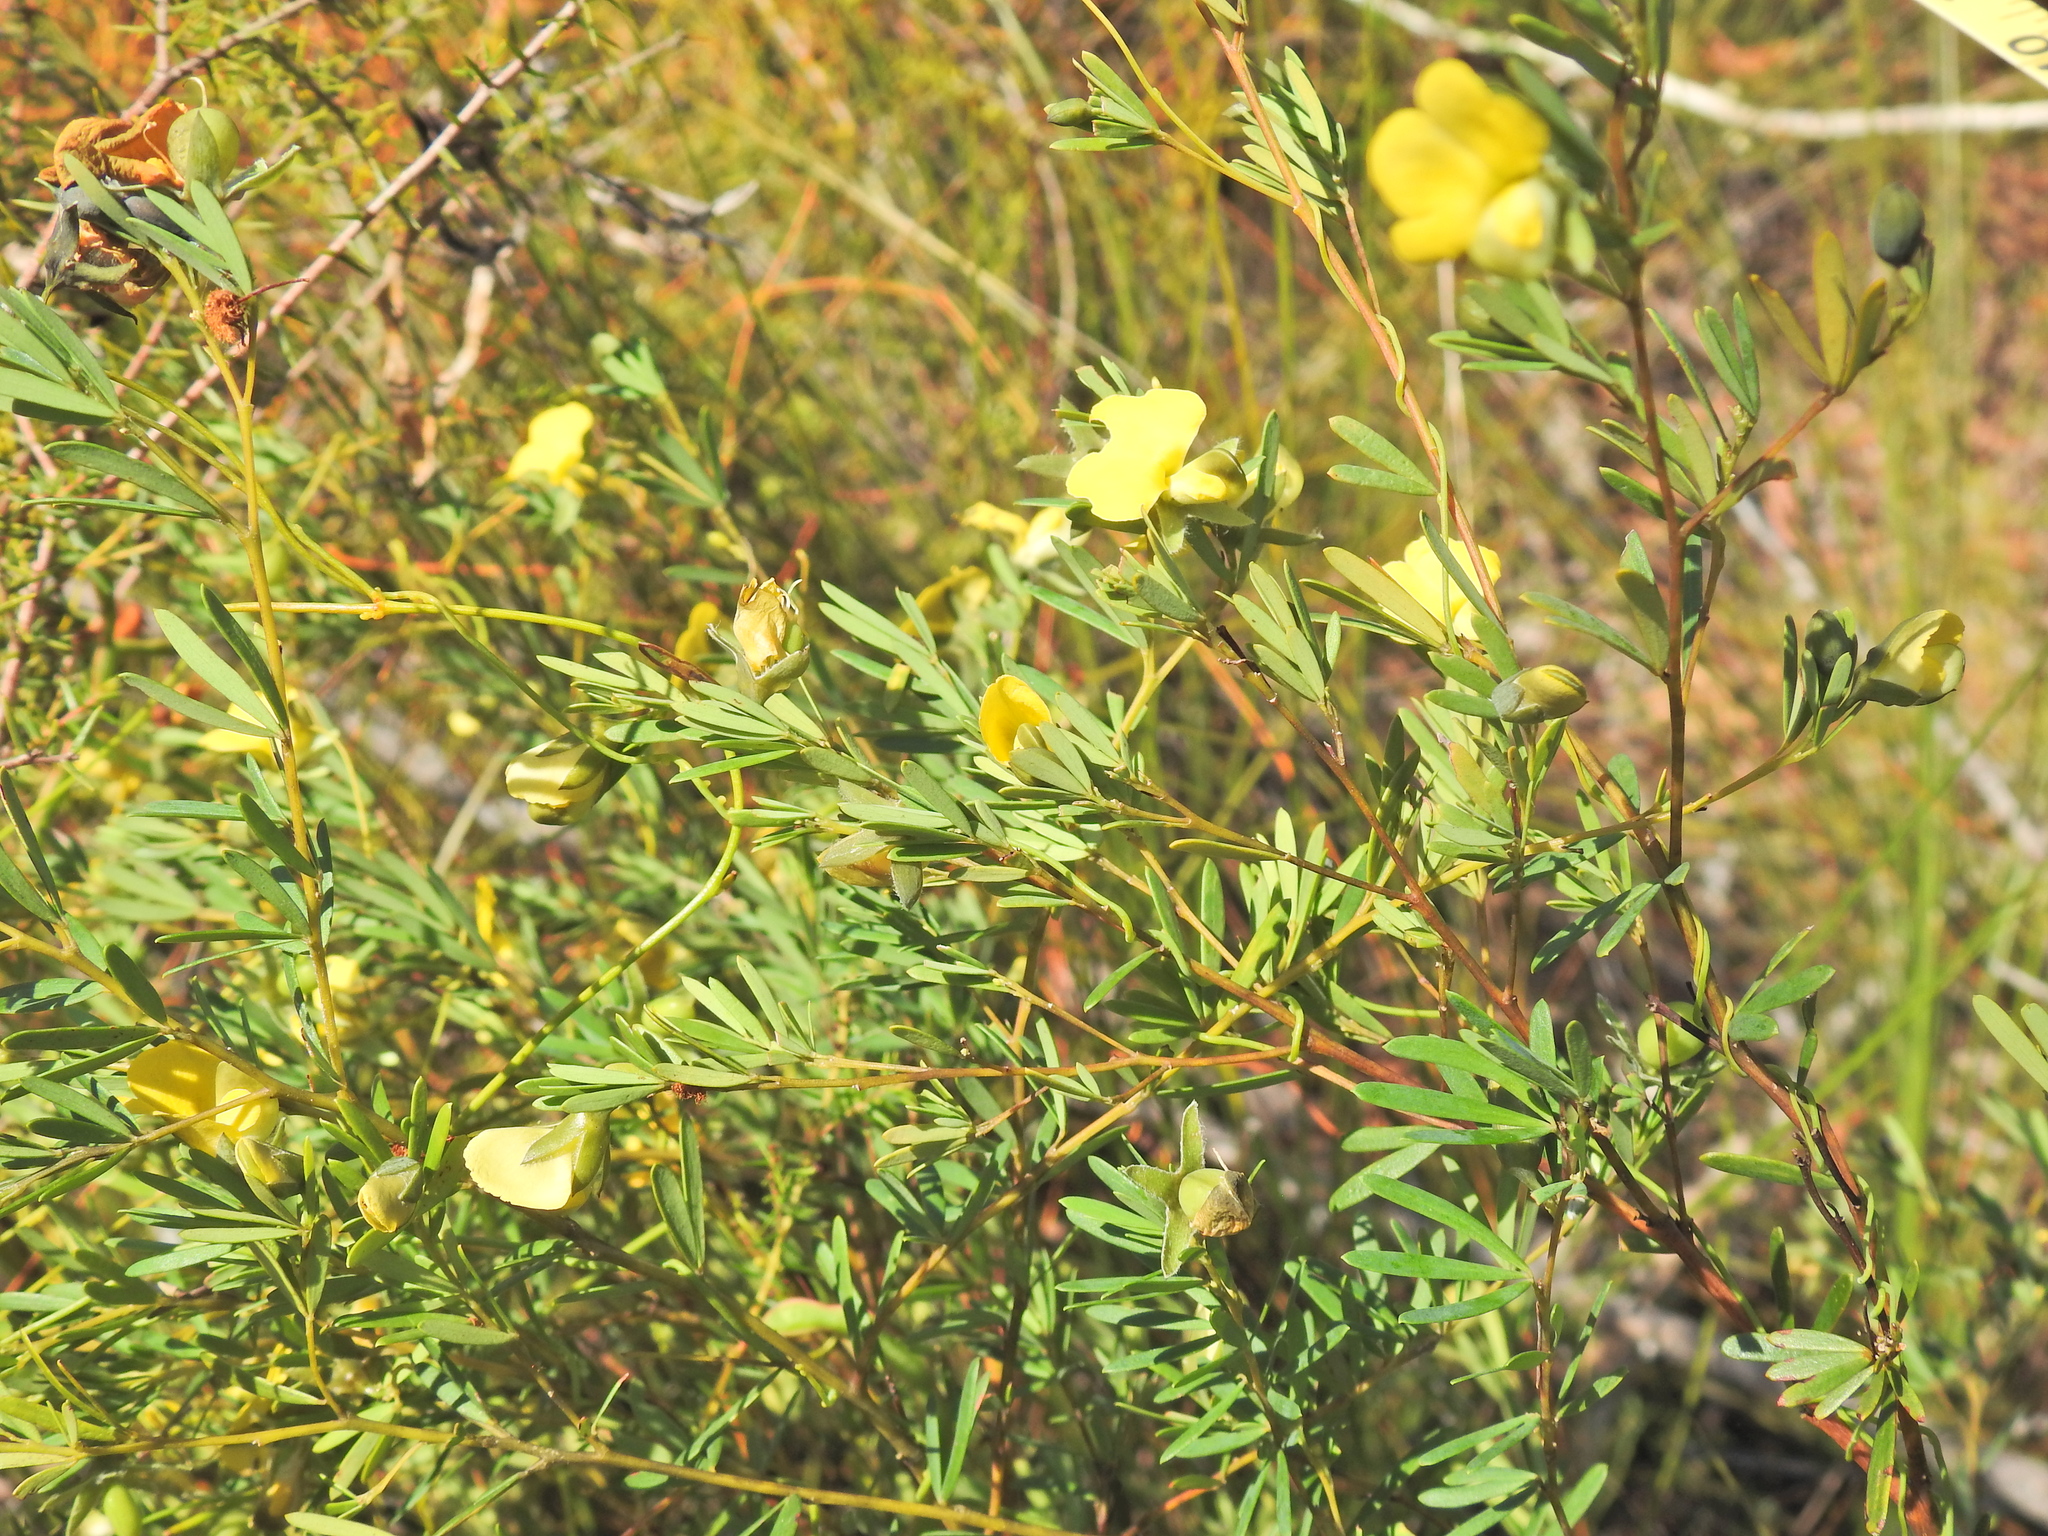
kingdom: Plantae
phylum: Tracheophyta
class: Magnoliopsida
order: Fabales
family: Fabaceae
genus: Gompholobium
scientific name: Gompholobium virgatum
